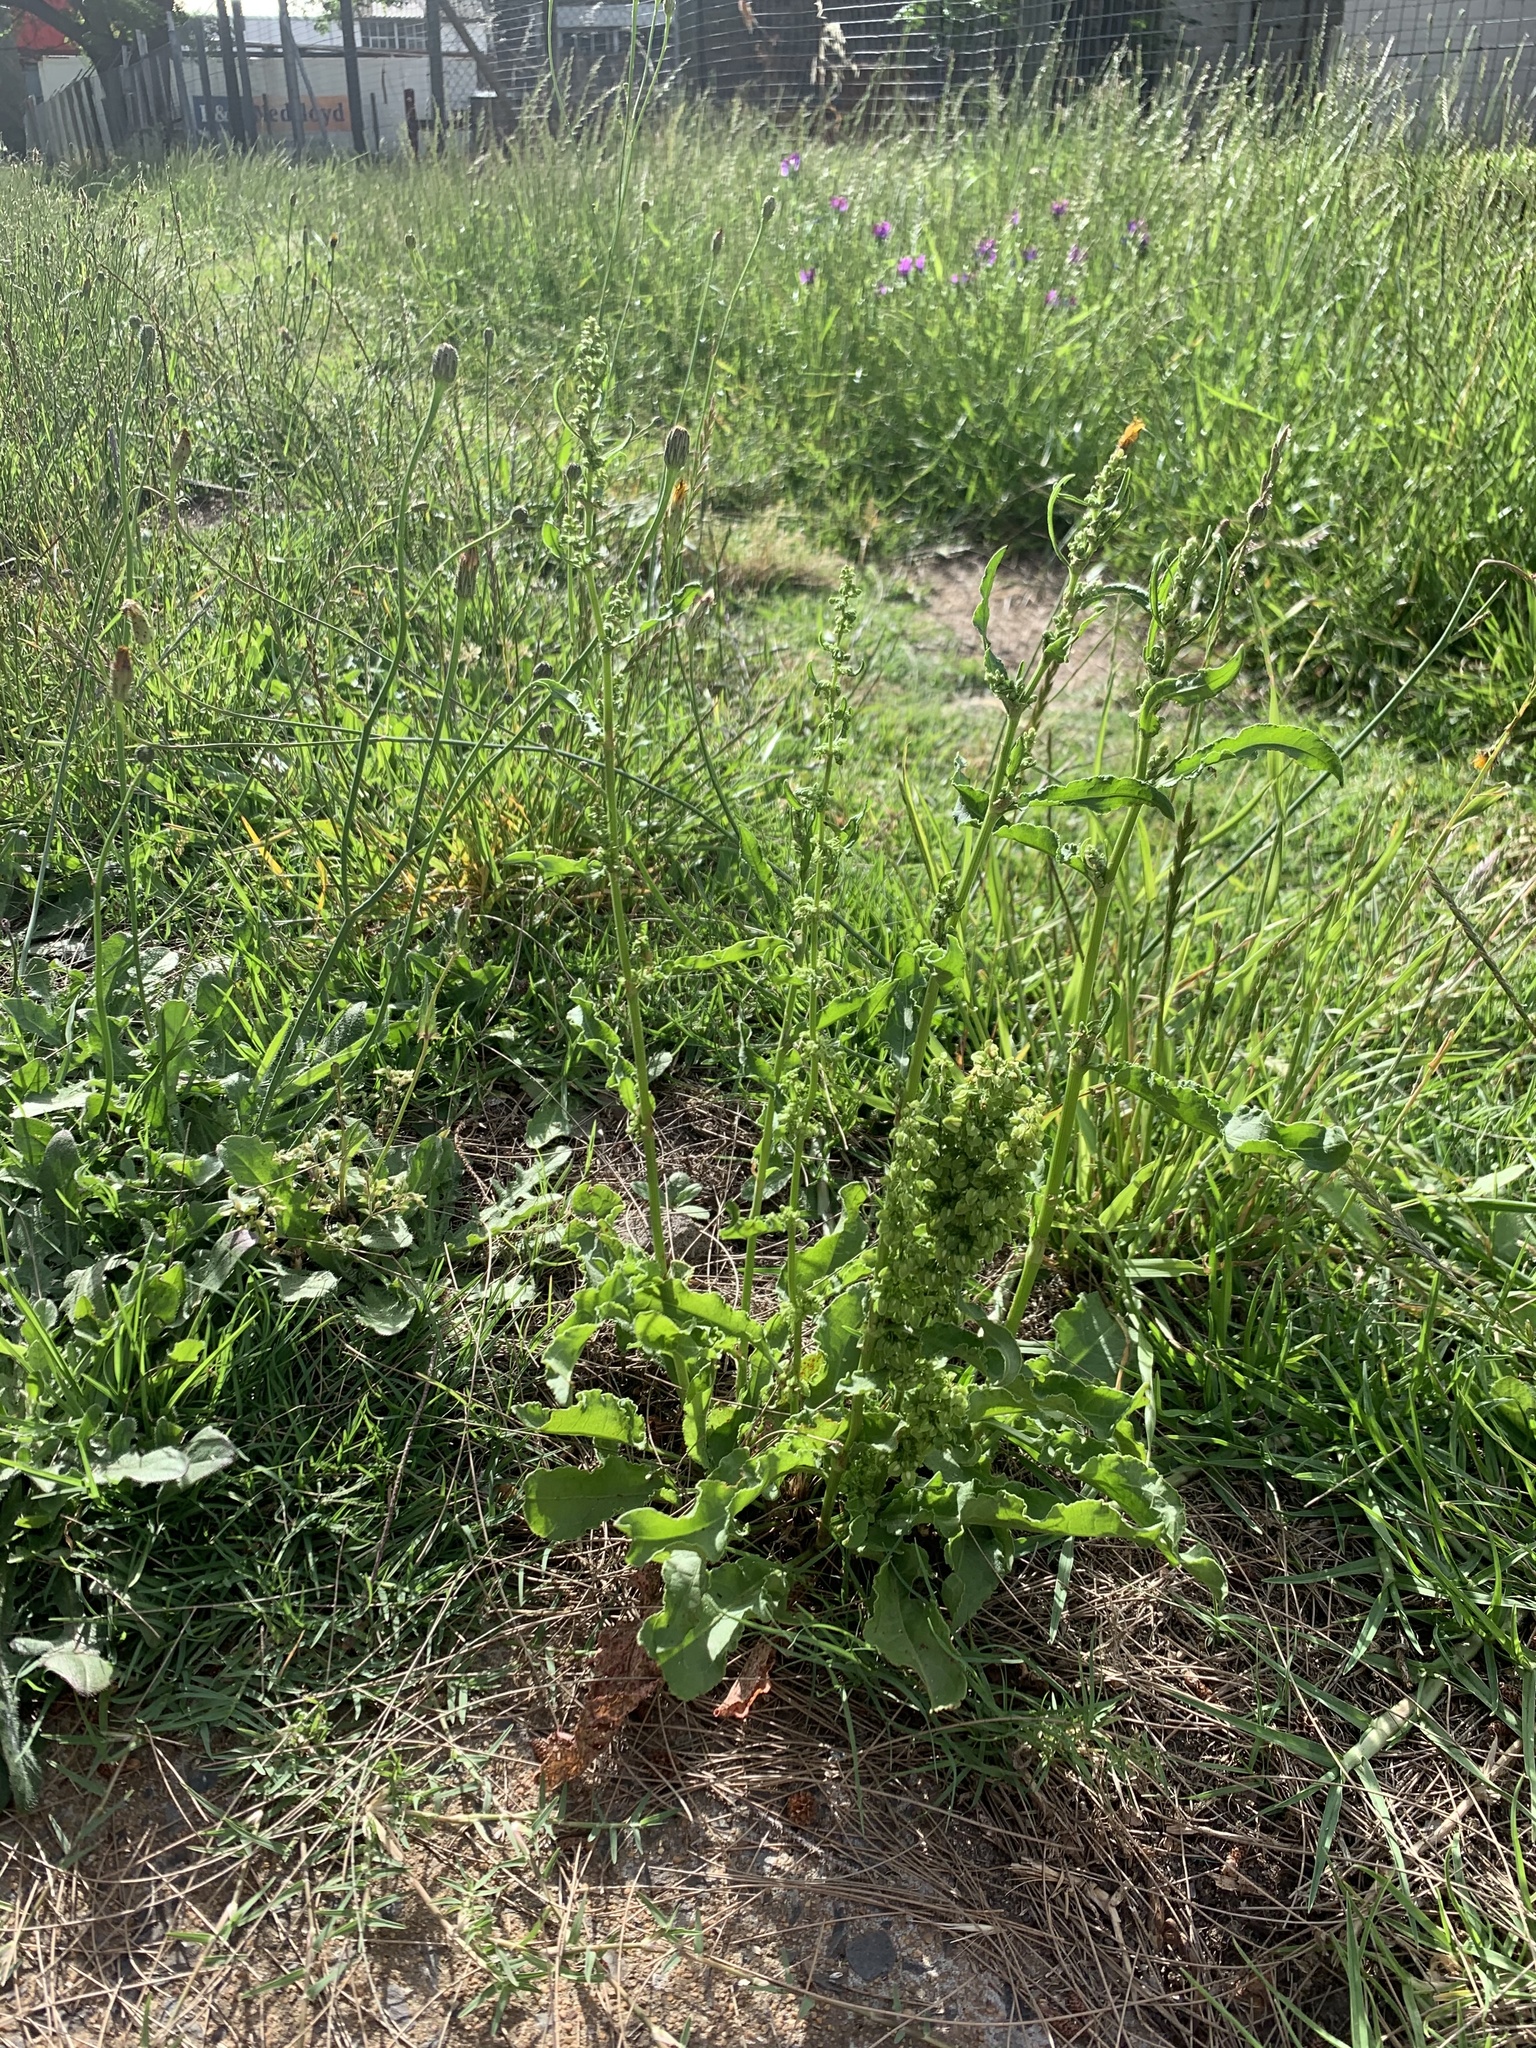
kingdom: Plantae
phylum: Tracheophyta
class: Magnoliopsida
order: Caryophyllales
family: Polygonaceae
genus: Rumex
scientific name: Rumex crispus
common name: Curled dock
